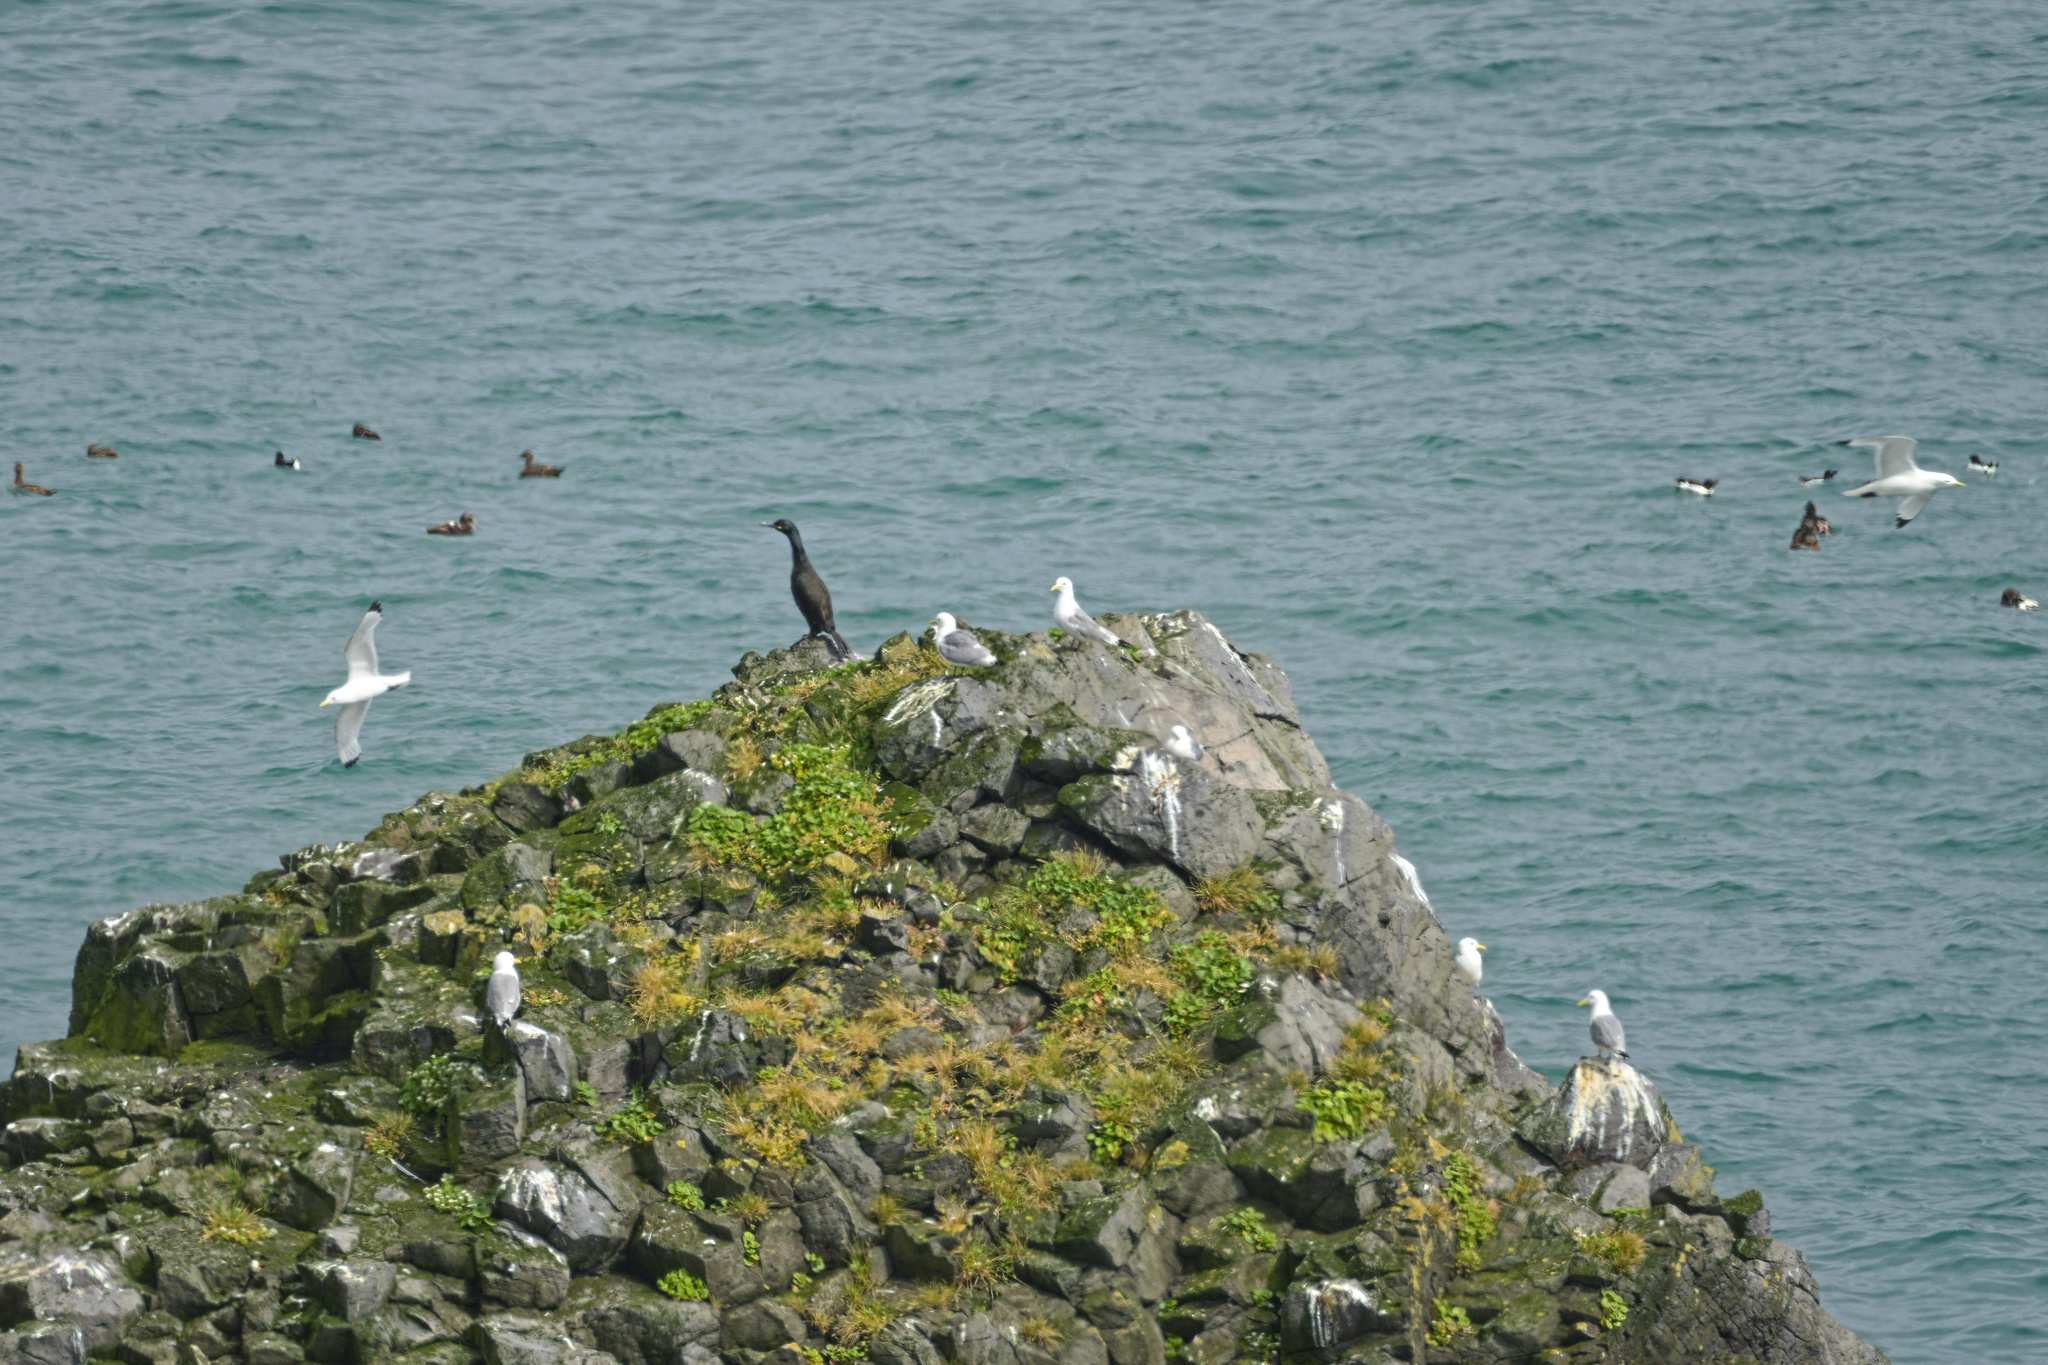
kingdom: Animalia
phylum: Chordata
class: Aves
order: Suliformes
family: Phalacrocoracidae
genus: Phalacrocorax
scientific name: Phalacrocorax aristotelis
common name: European shag
